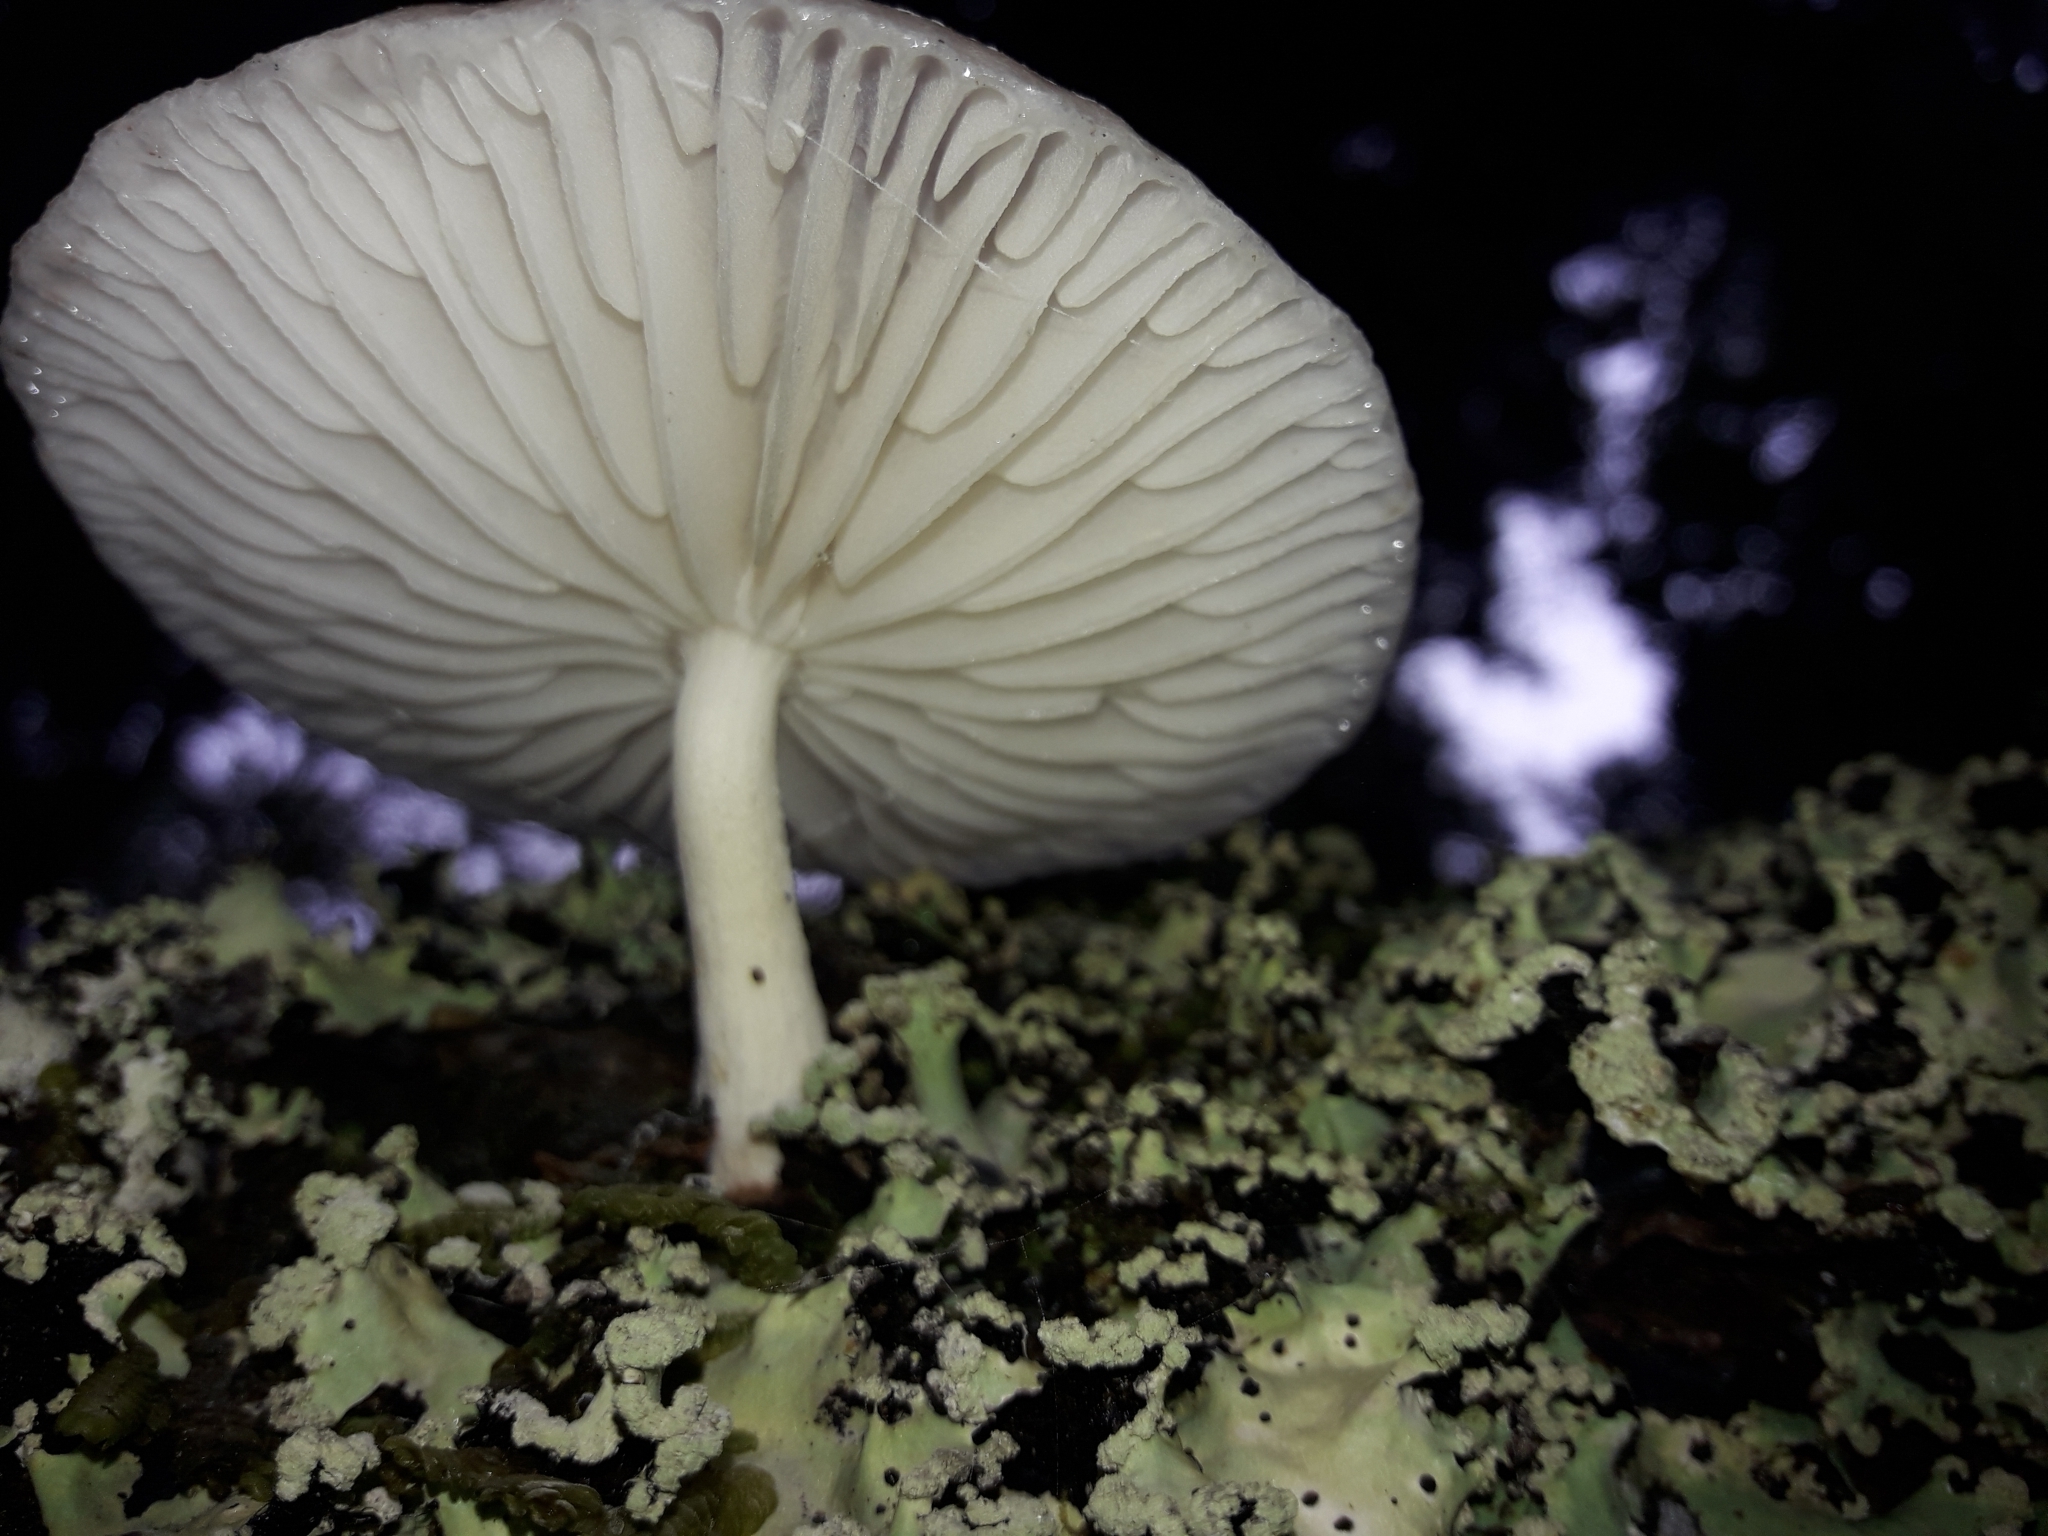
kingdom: Fungi
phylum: Basidiomycota
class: Agaricomycetes
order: Agaricales
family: Physalacriaceae
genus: Oudemansiella
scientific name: Oudemansiella australis
